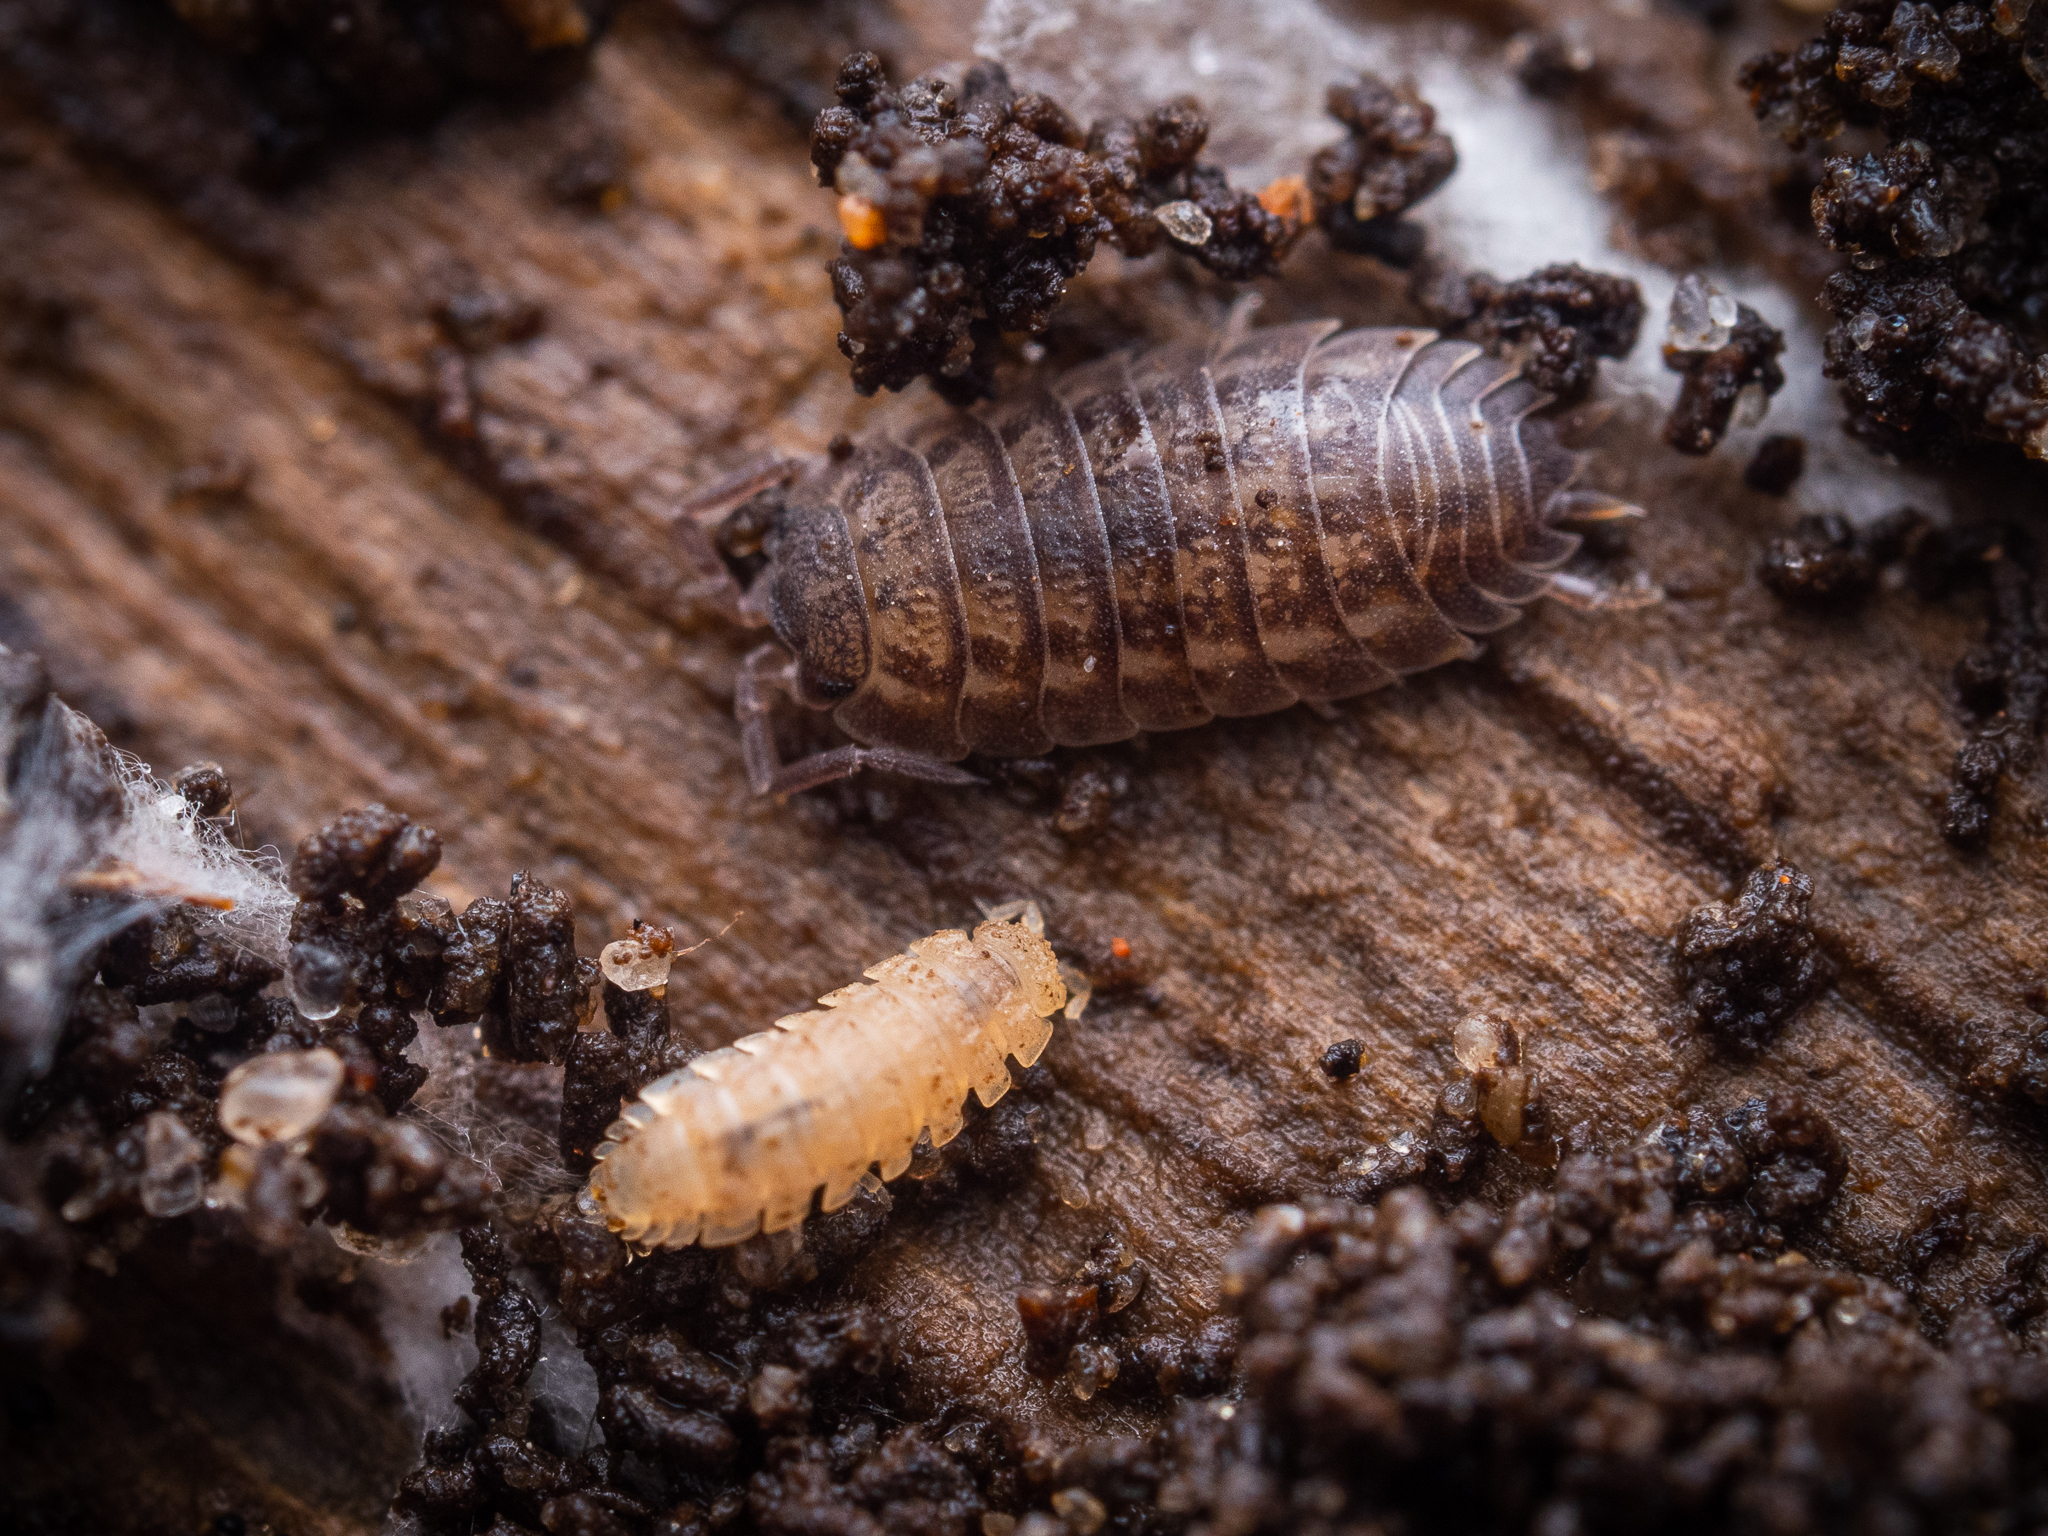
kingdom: Animalia
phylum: Arthropoda
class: Malacostraca
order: Isopoda
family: Trichoniscidae
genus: Haplophthalmus
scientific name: Haplophthalmus danicus
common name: Pillbug
